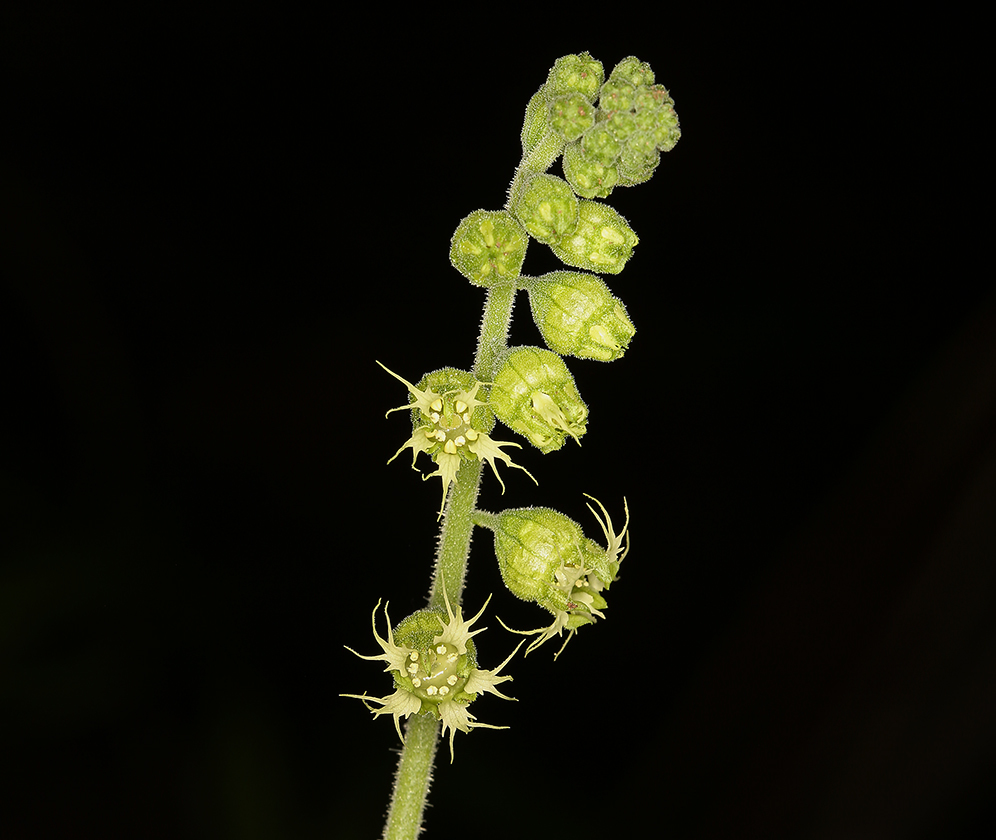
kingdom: Plantae
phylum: Tracheophyta
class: Magnoliopsida
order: Saxifragales
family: Saxifragaceae
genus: Tellima
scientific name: Tellima grandiflora
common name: Fringecups
